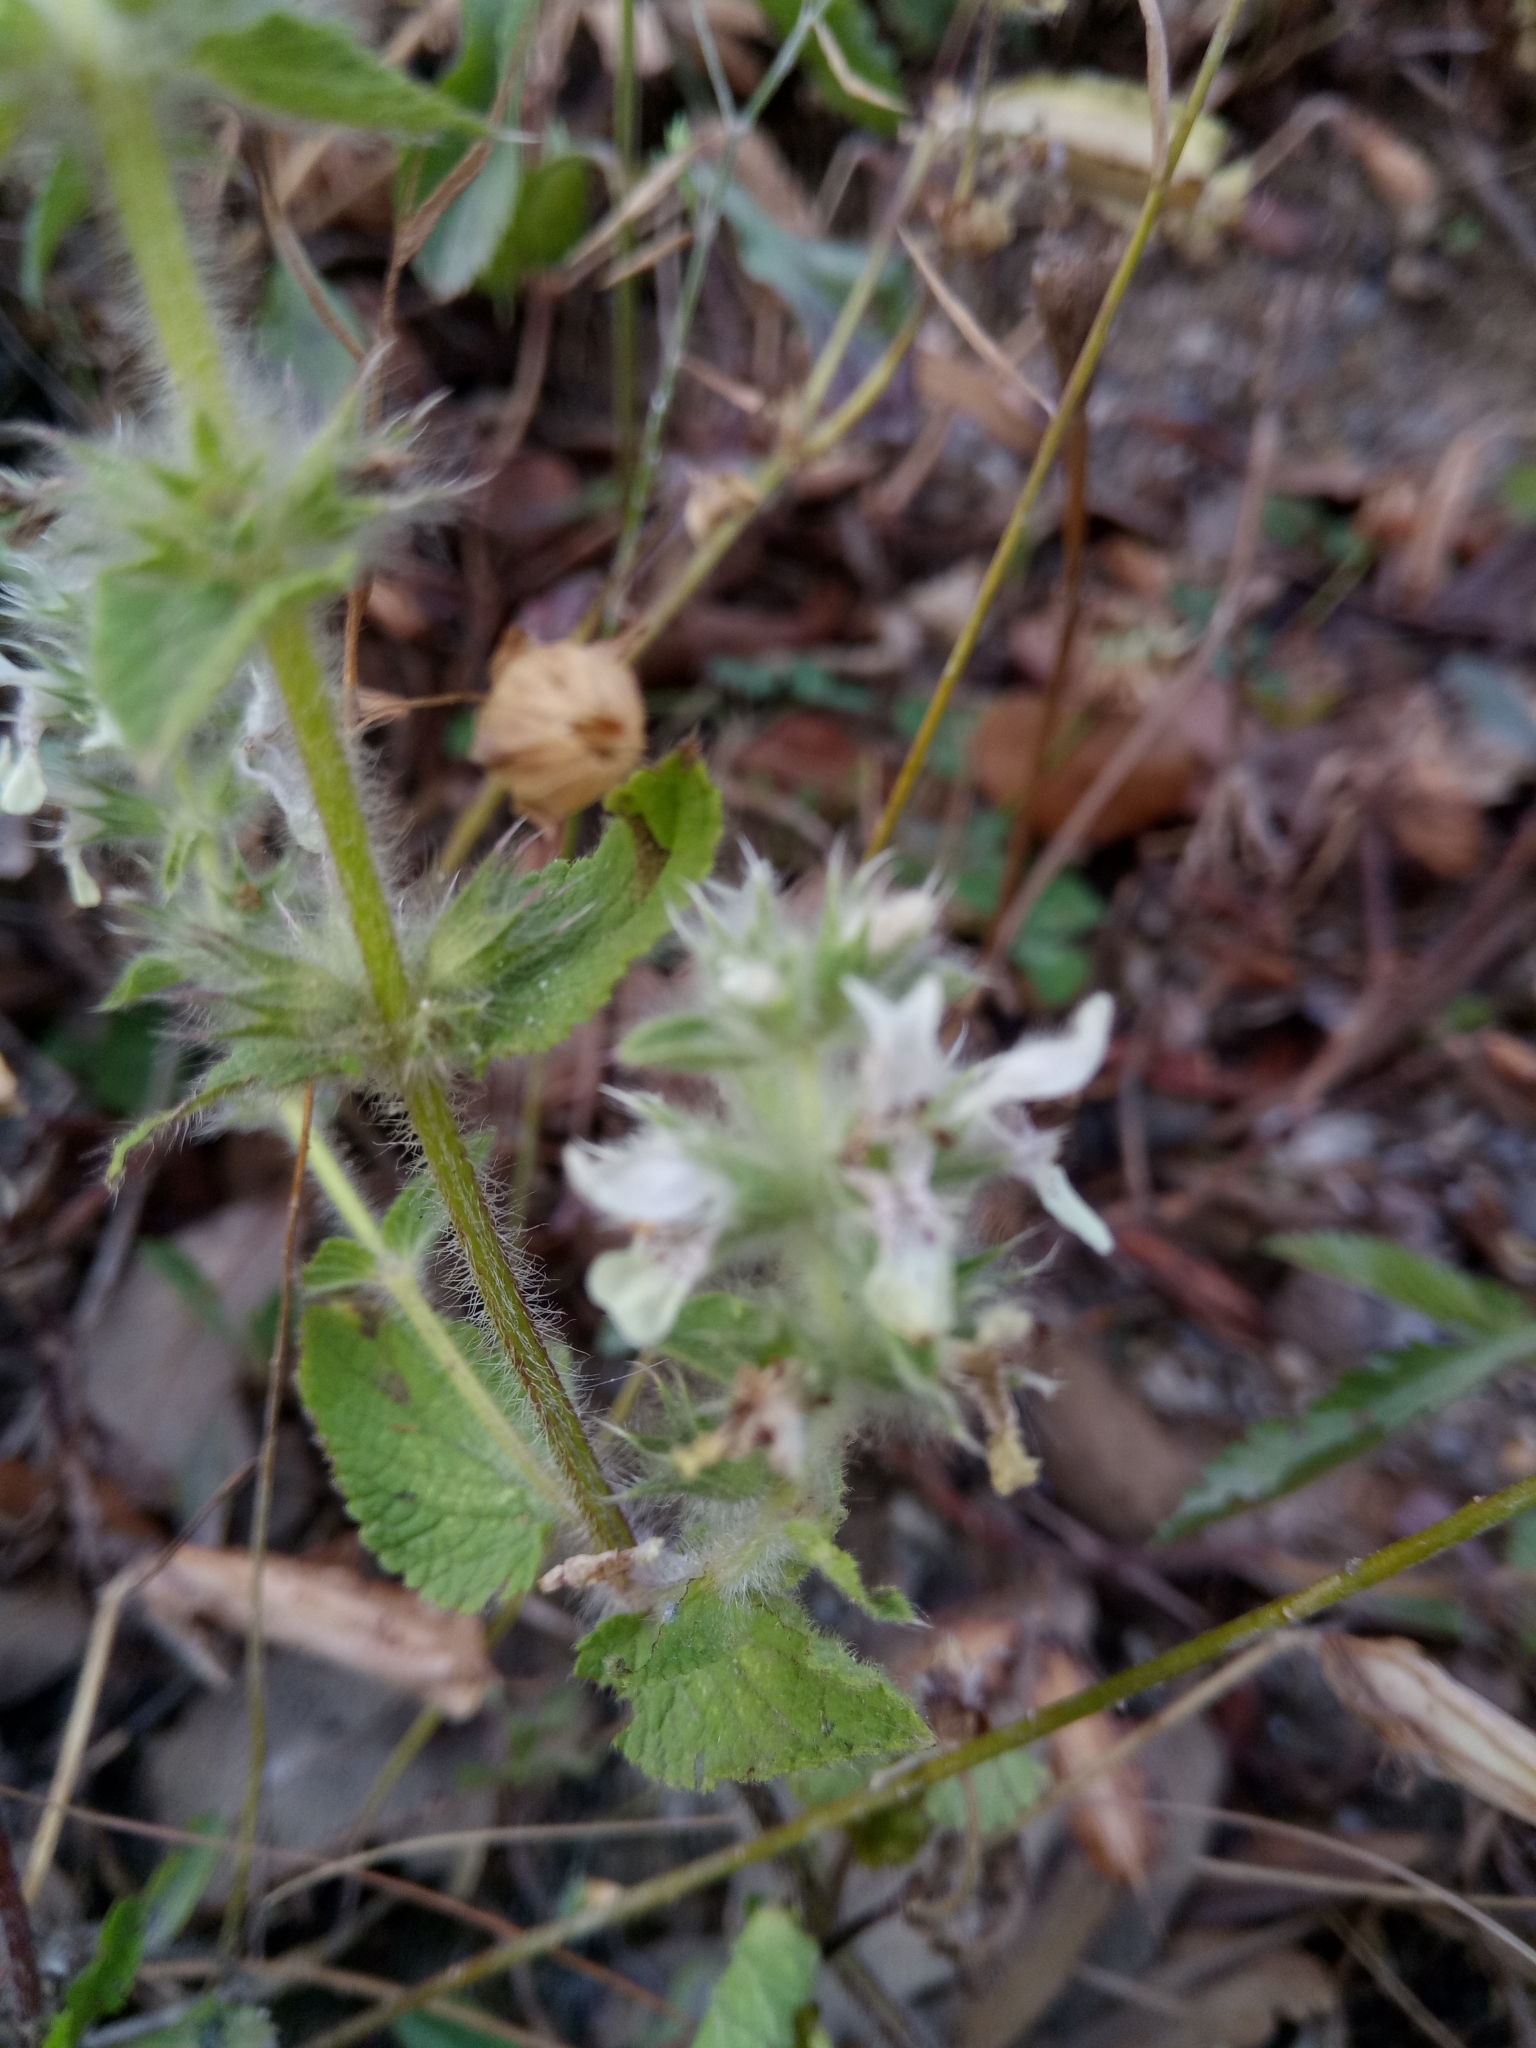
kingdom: Plantae
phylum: Tracheophyta
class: Magnoliopsida
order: Lamiales
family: Lamiaceae
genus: Stachys
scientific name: Stachys ocymastrum
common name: Italian hedgenettle
